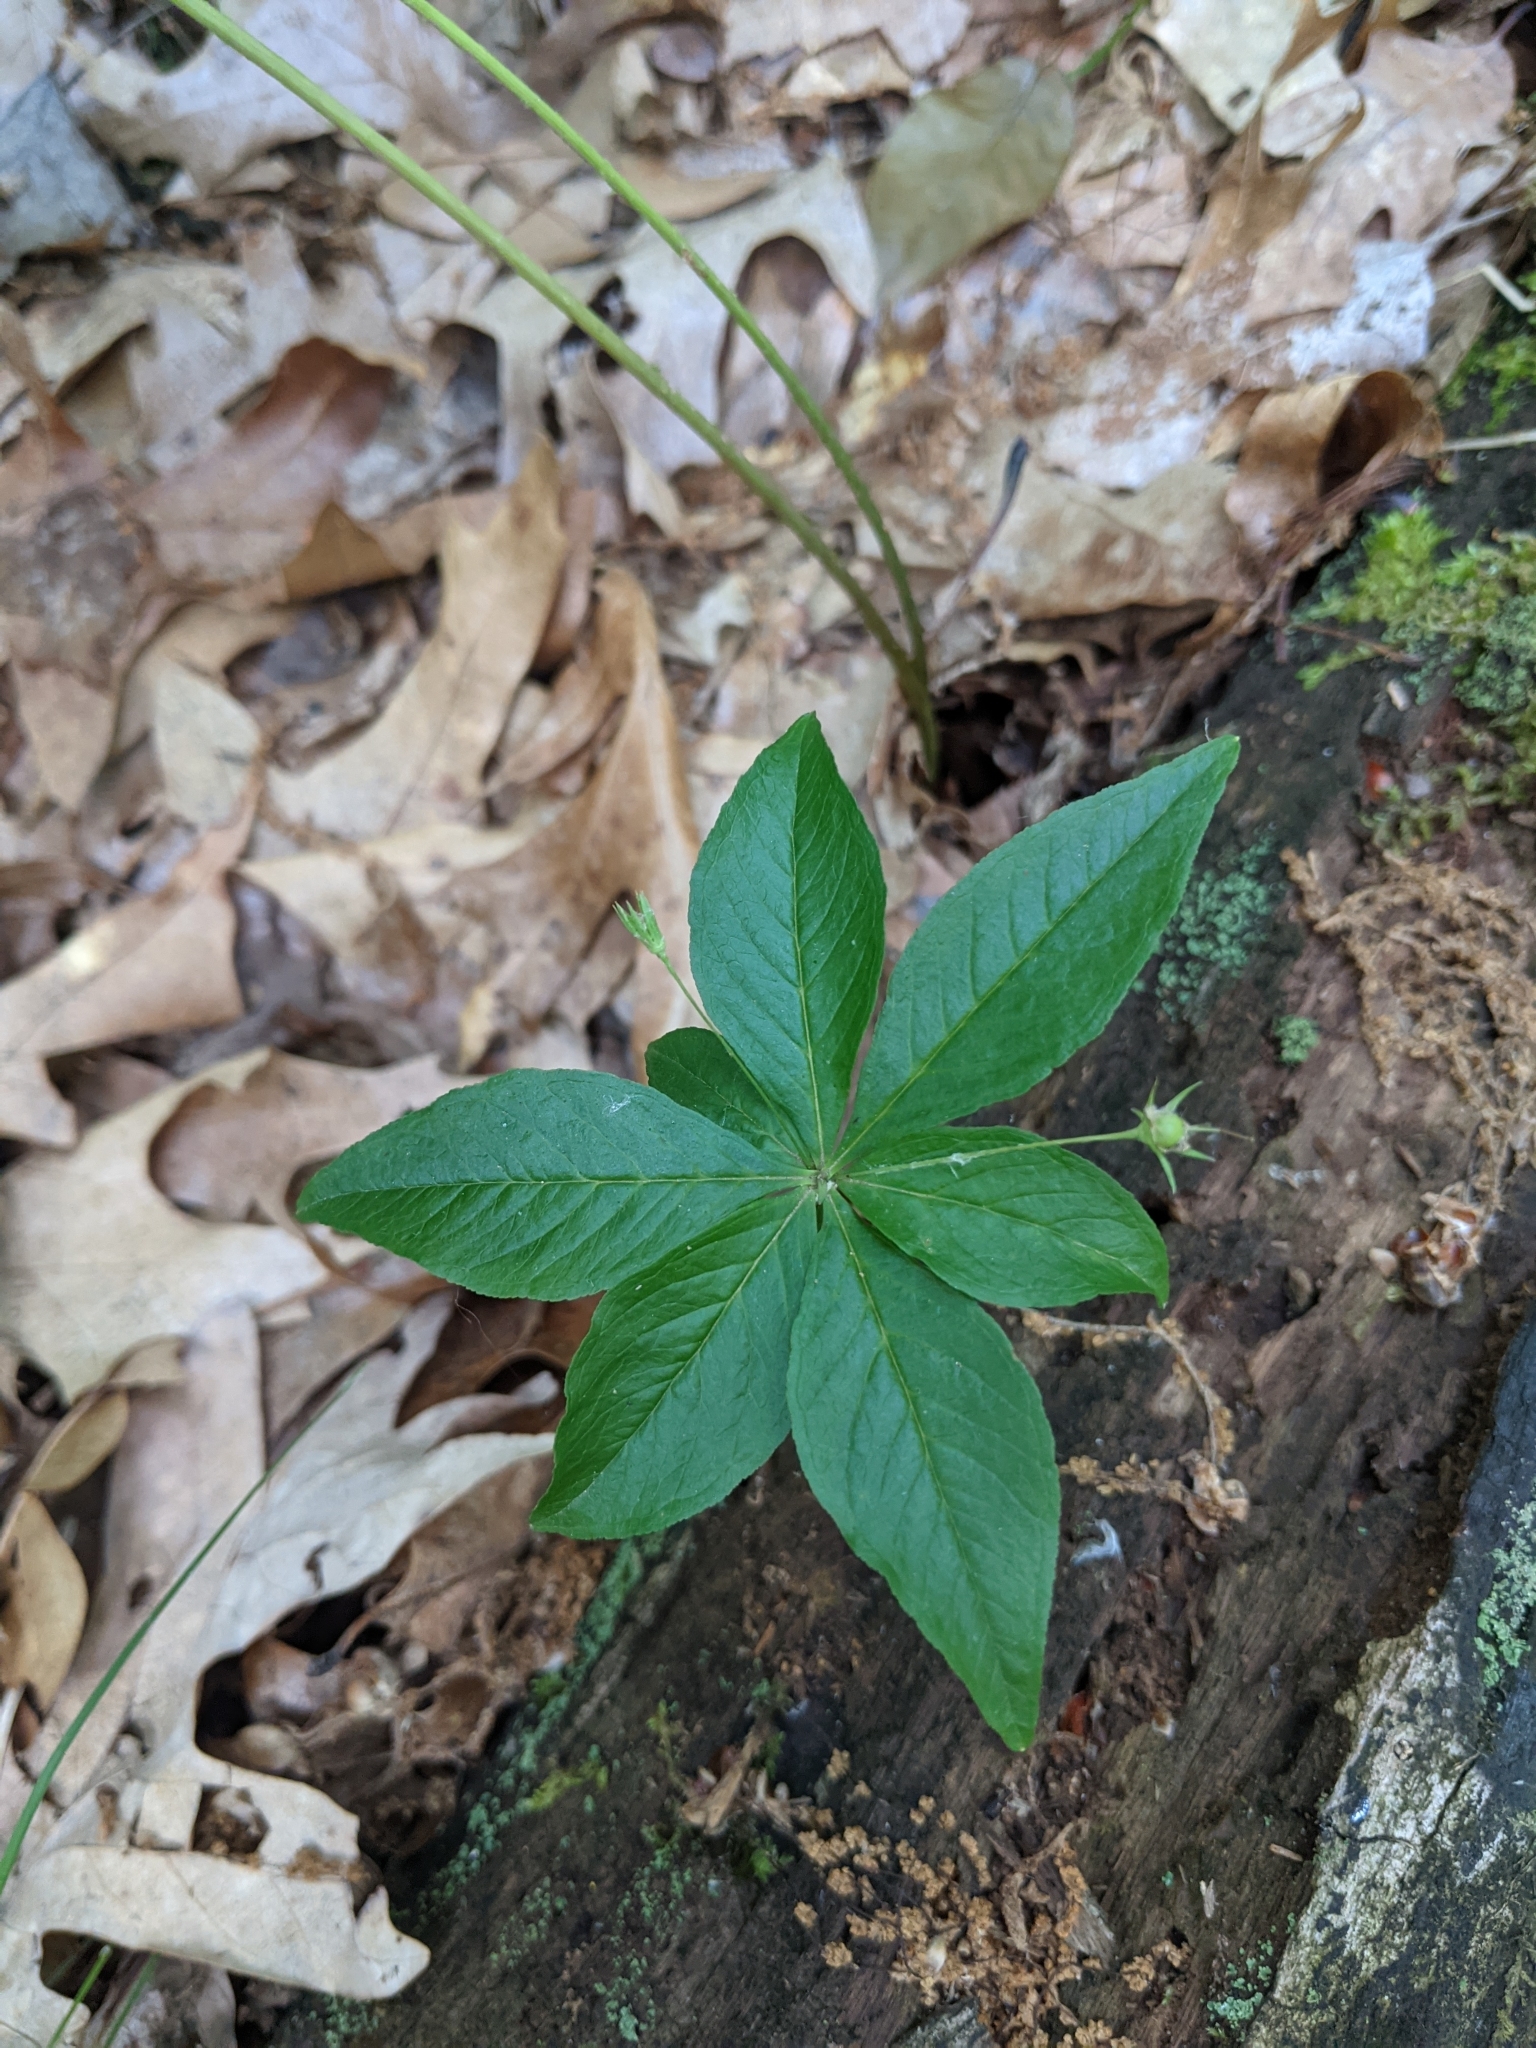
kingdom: Plantae
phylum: Tracheophyta
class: Magnoliopsida
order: Ericales
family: Primulaceae
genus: Lysimachia
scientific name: Lysimachia borealis
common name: American starflower
